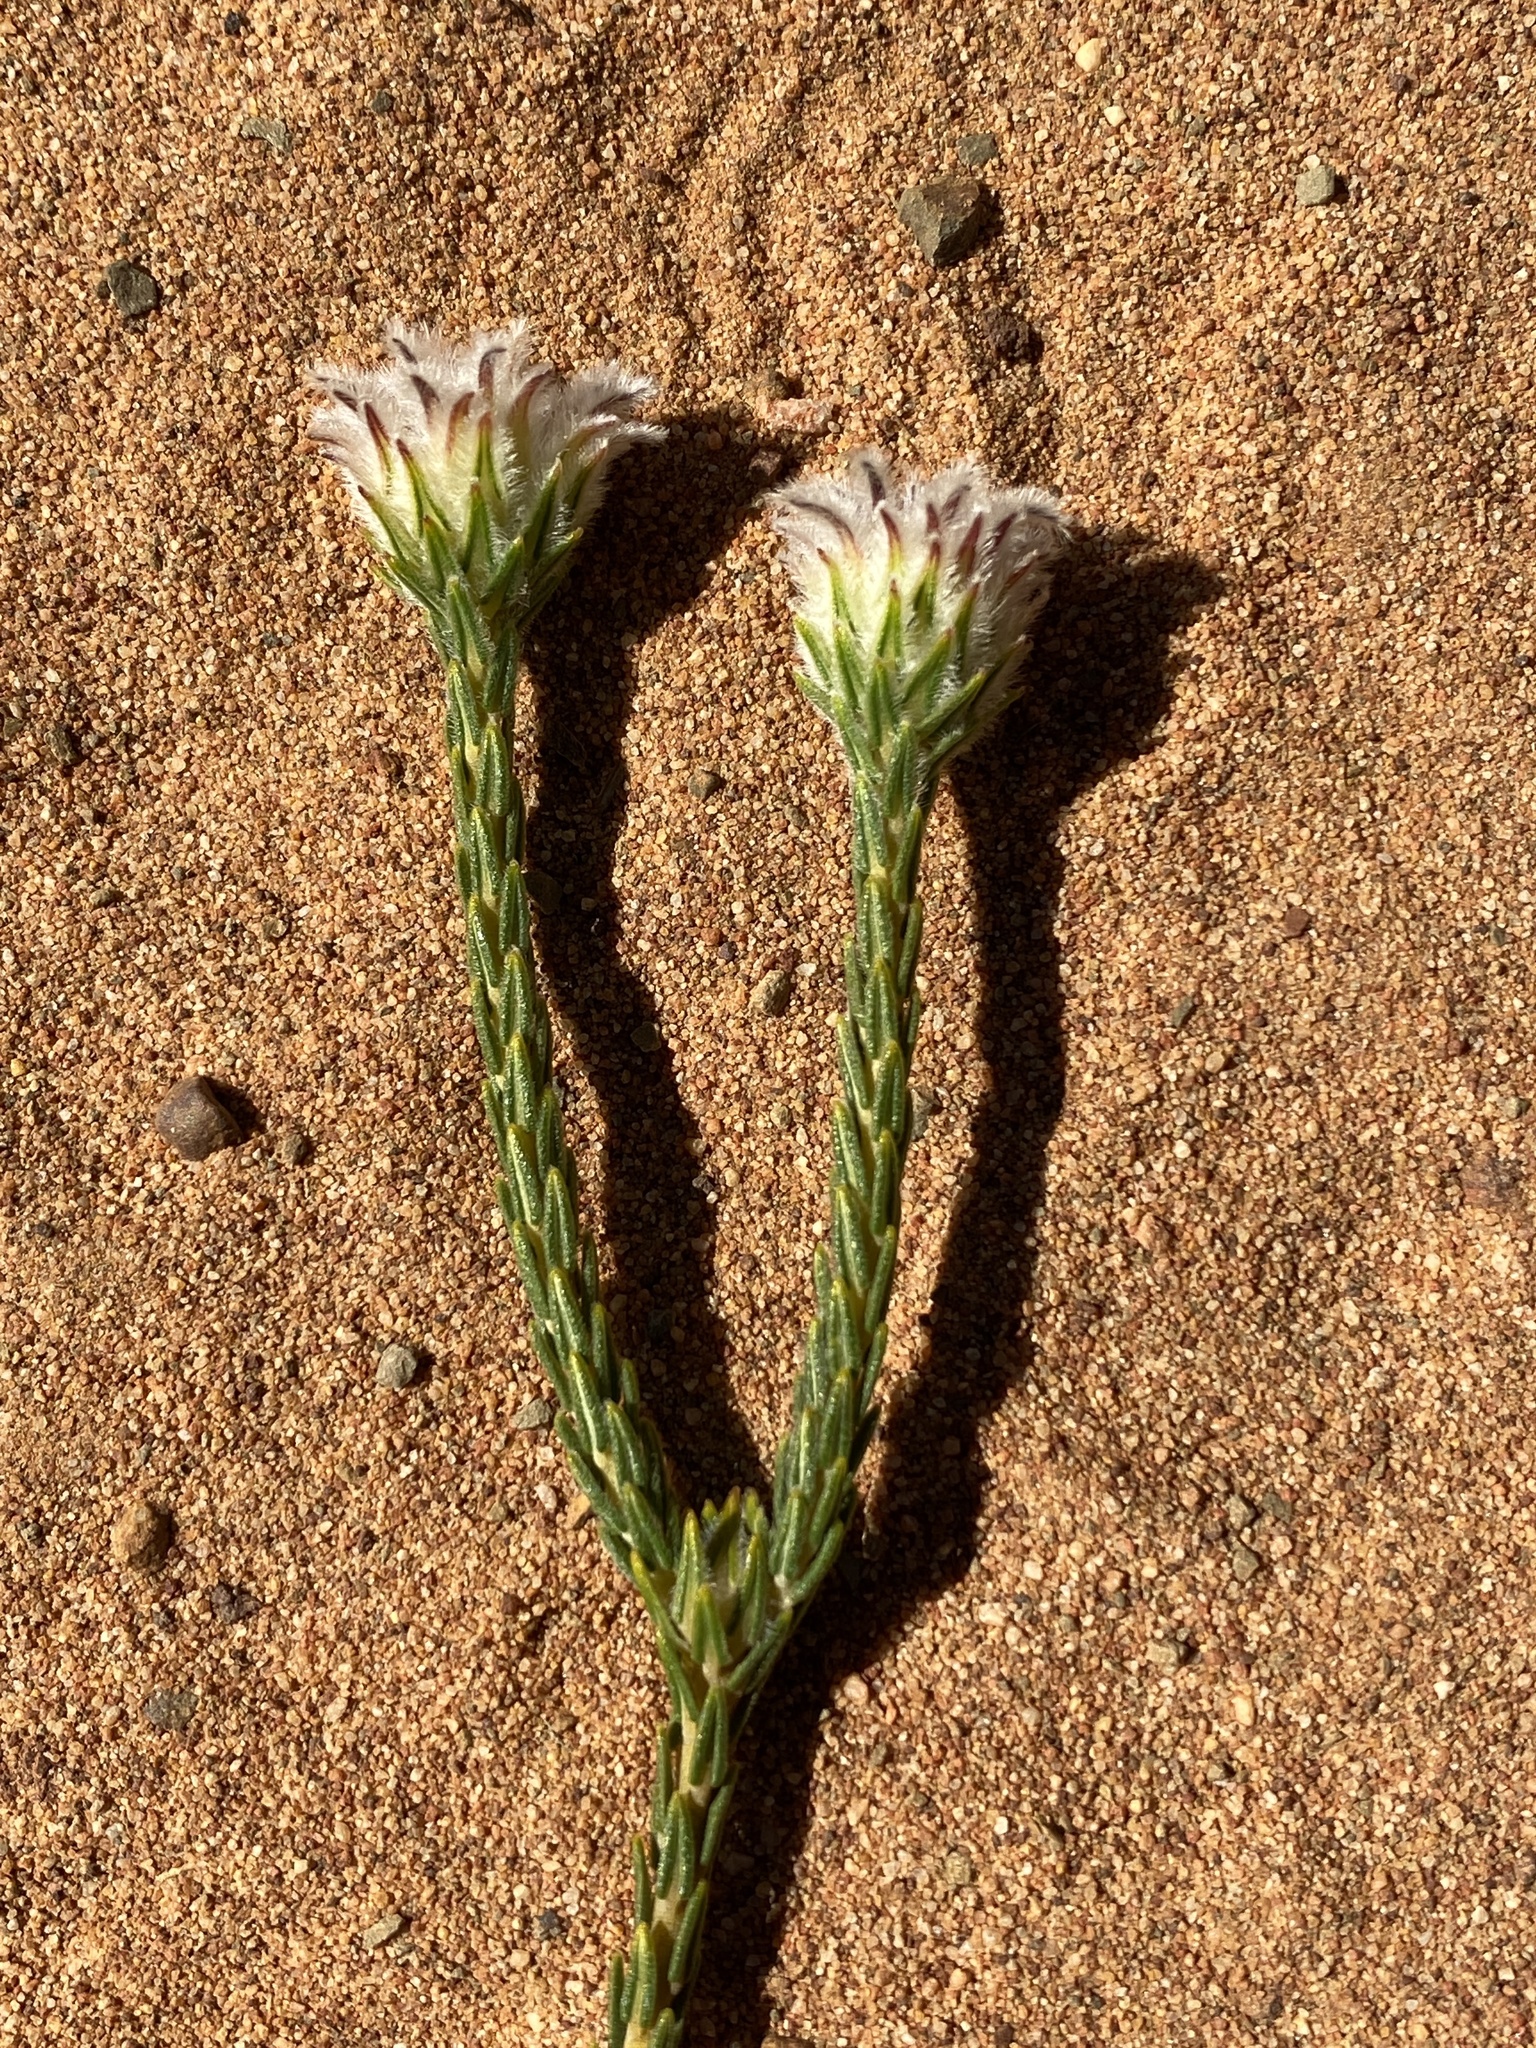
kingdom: Plantae
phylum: Tracheophyta
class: Magnoliopsida
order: Rosales
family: Rhamnaceae
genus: Phylica
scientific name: Phylica pulchella
